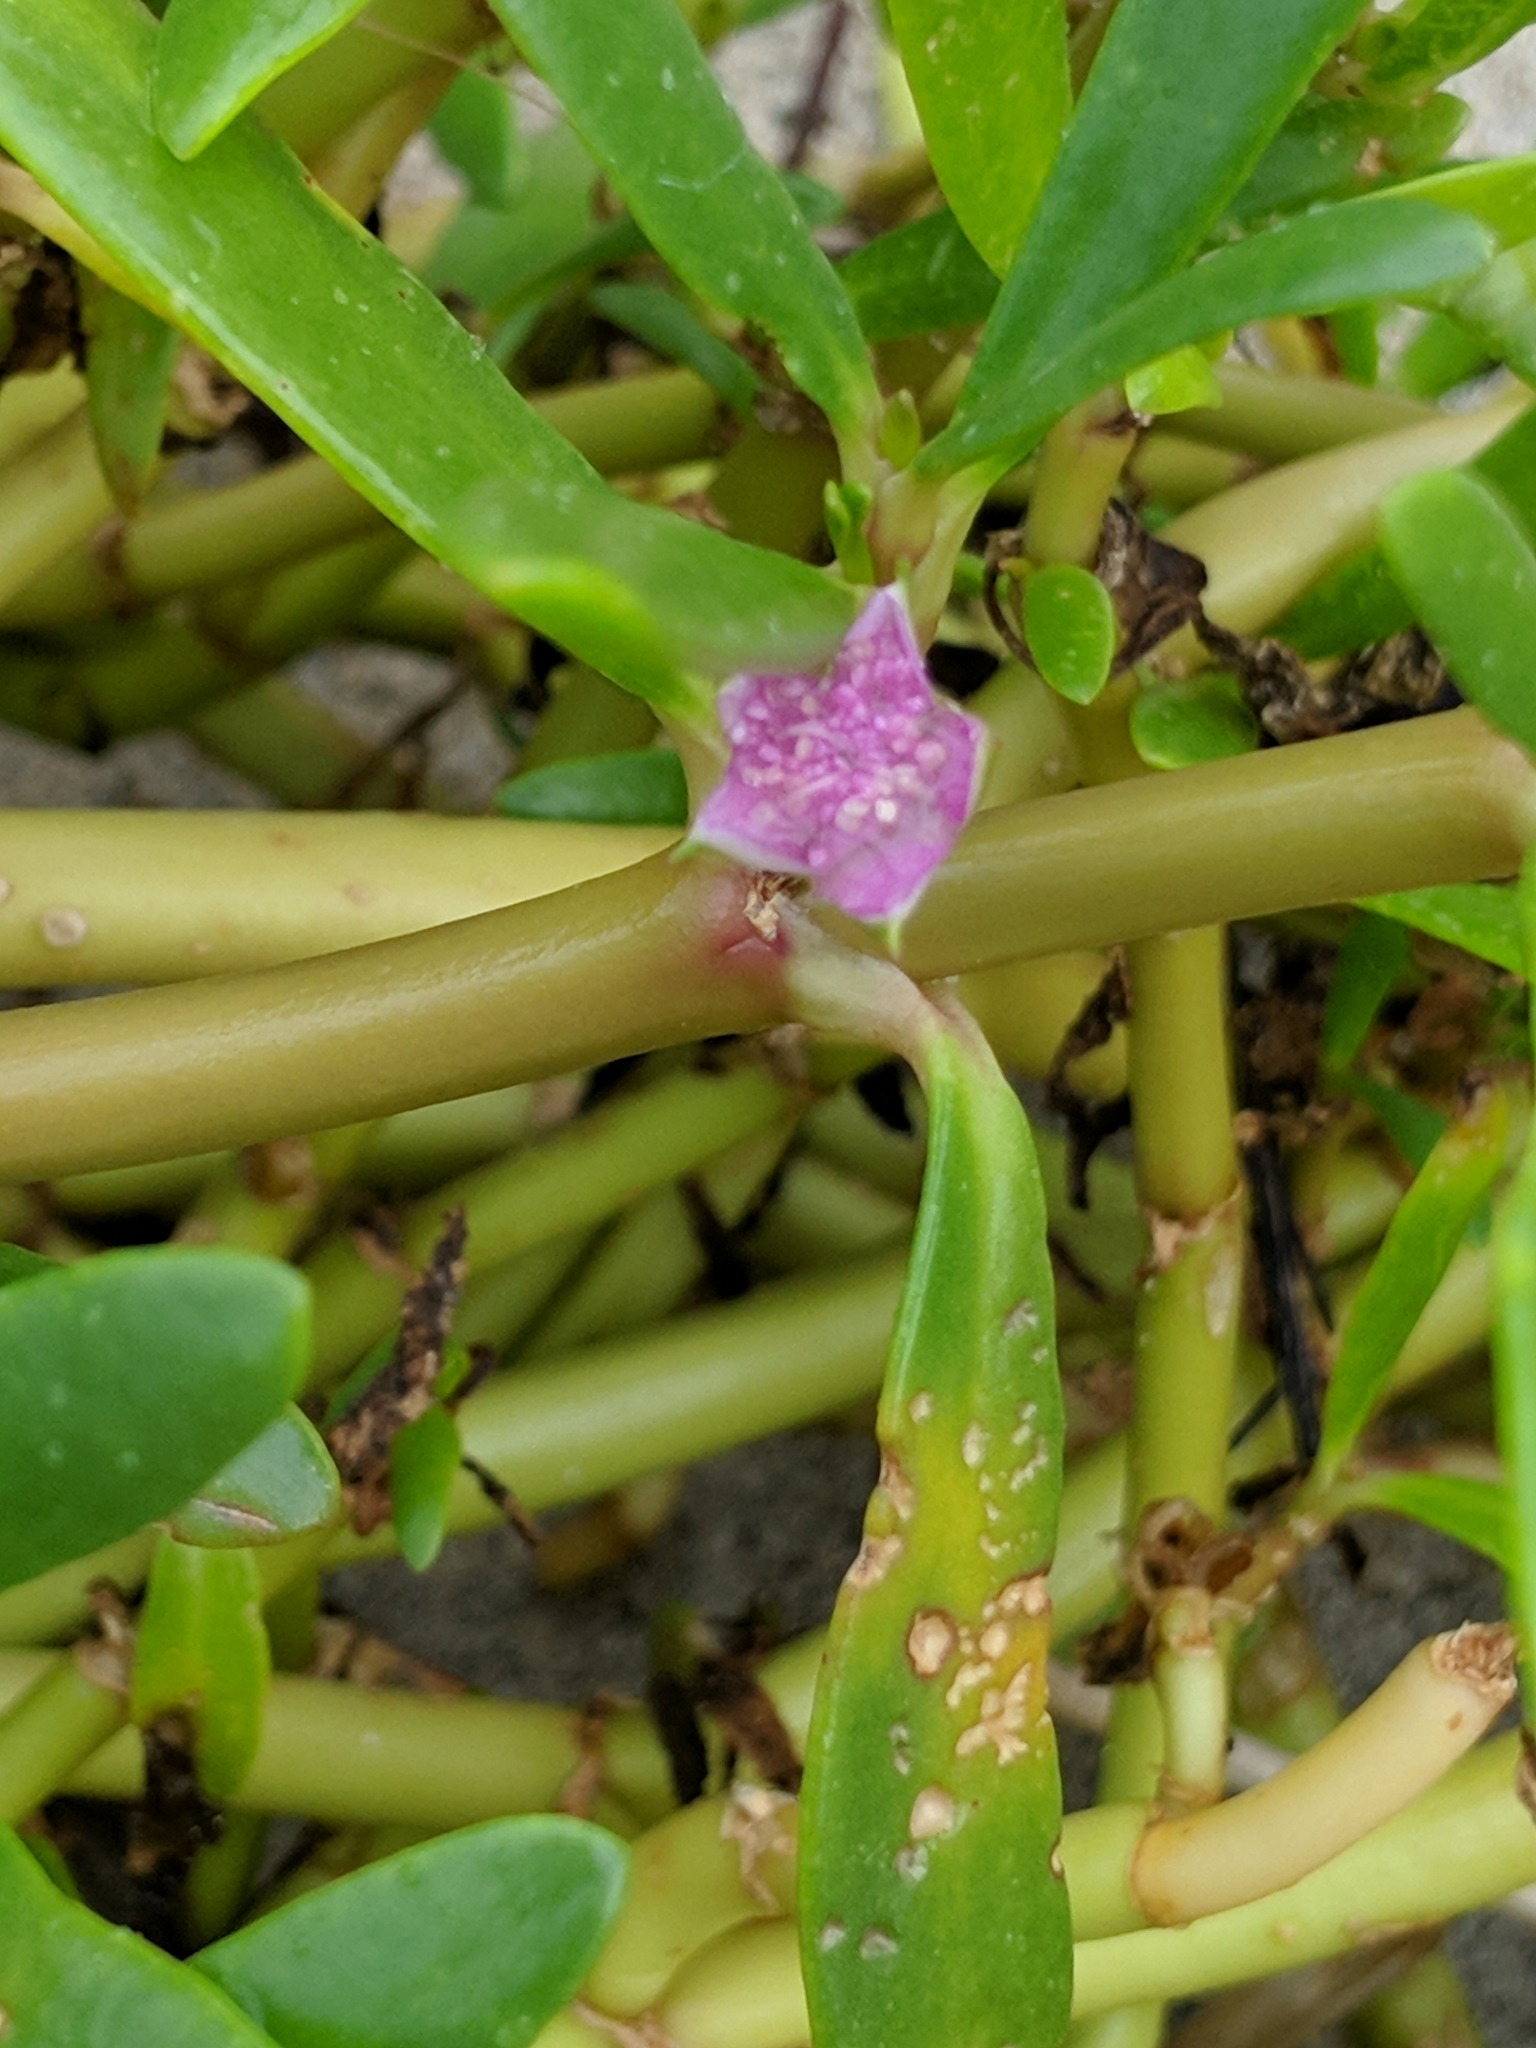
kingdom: Plantae
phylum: Tracheophyta
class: Magnoliopsida
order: Caryophyllales
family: Aizoaceae
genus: Sesuvium
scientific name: Sesuvium portulacastrum
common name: Sea-purslane
